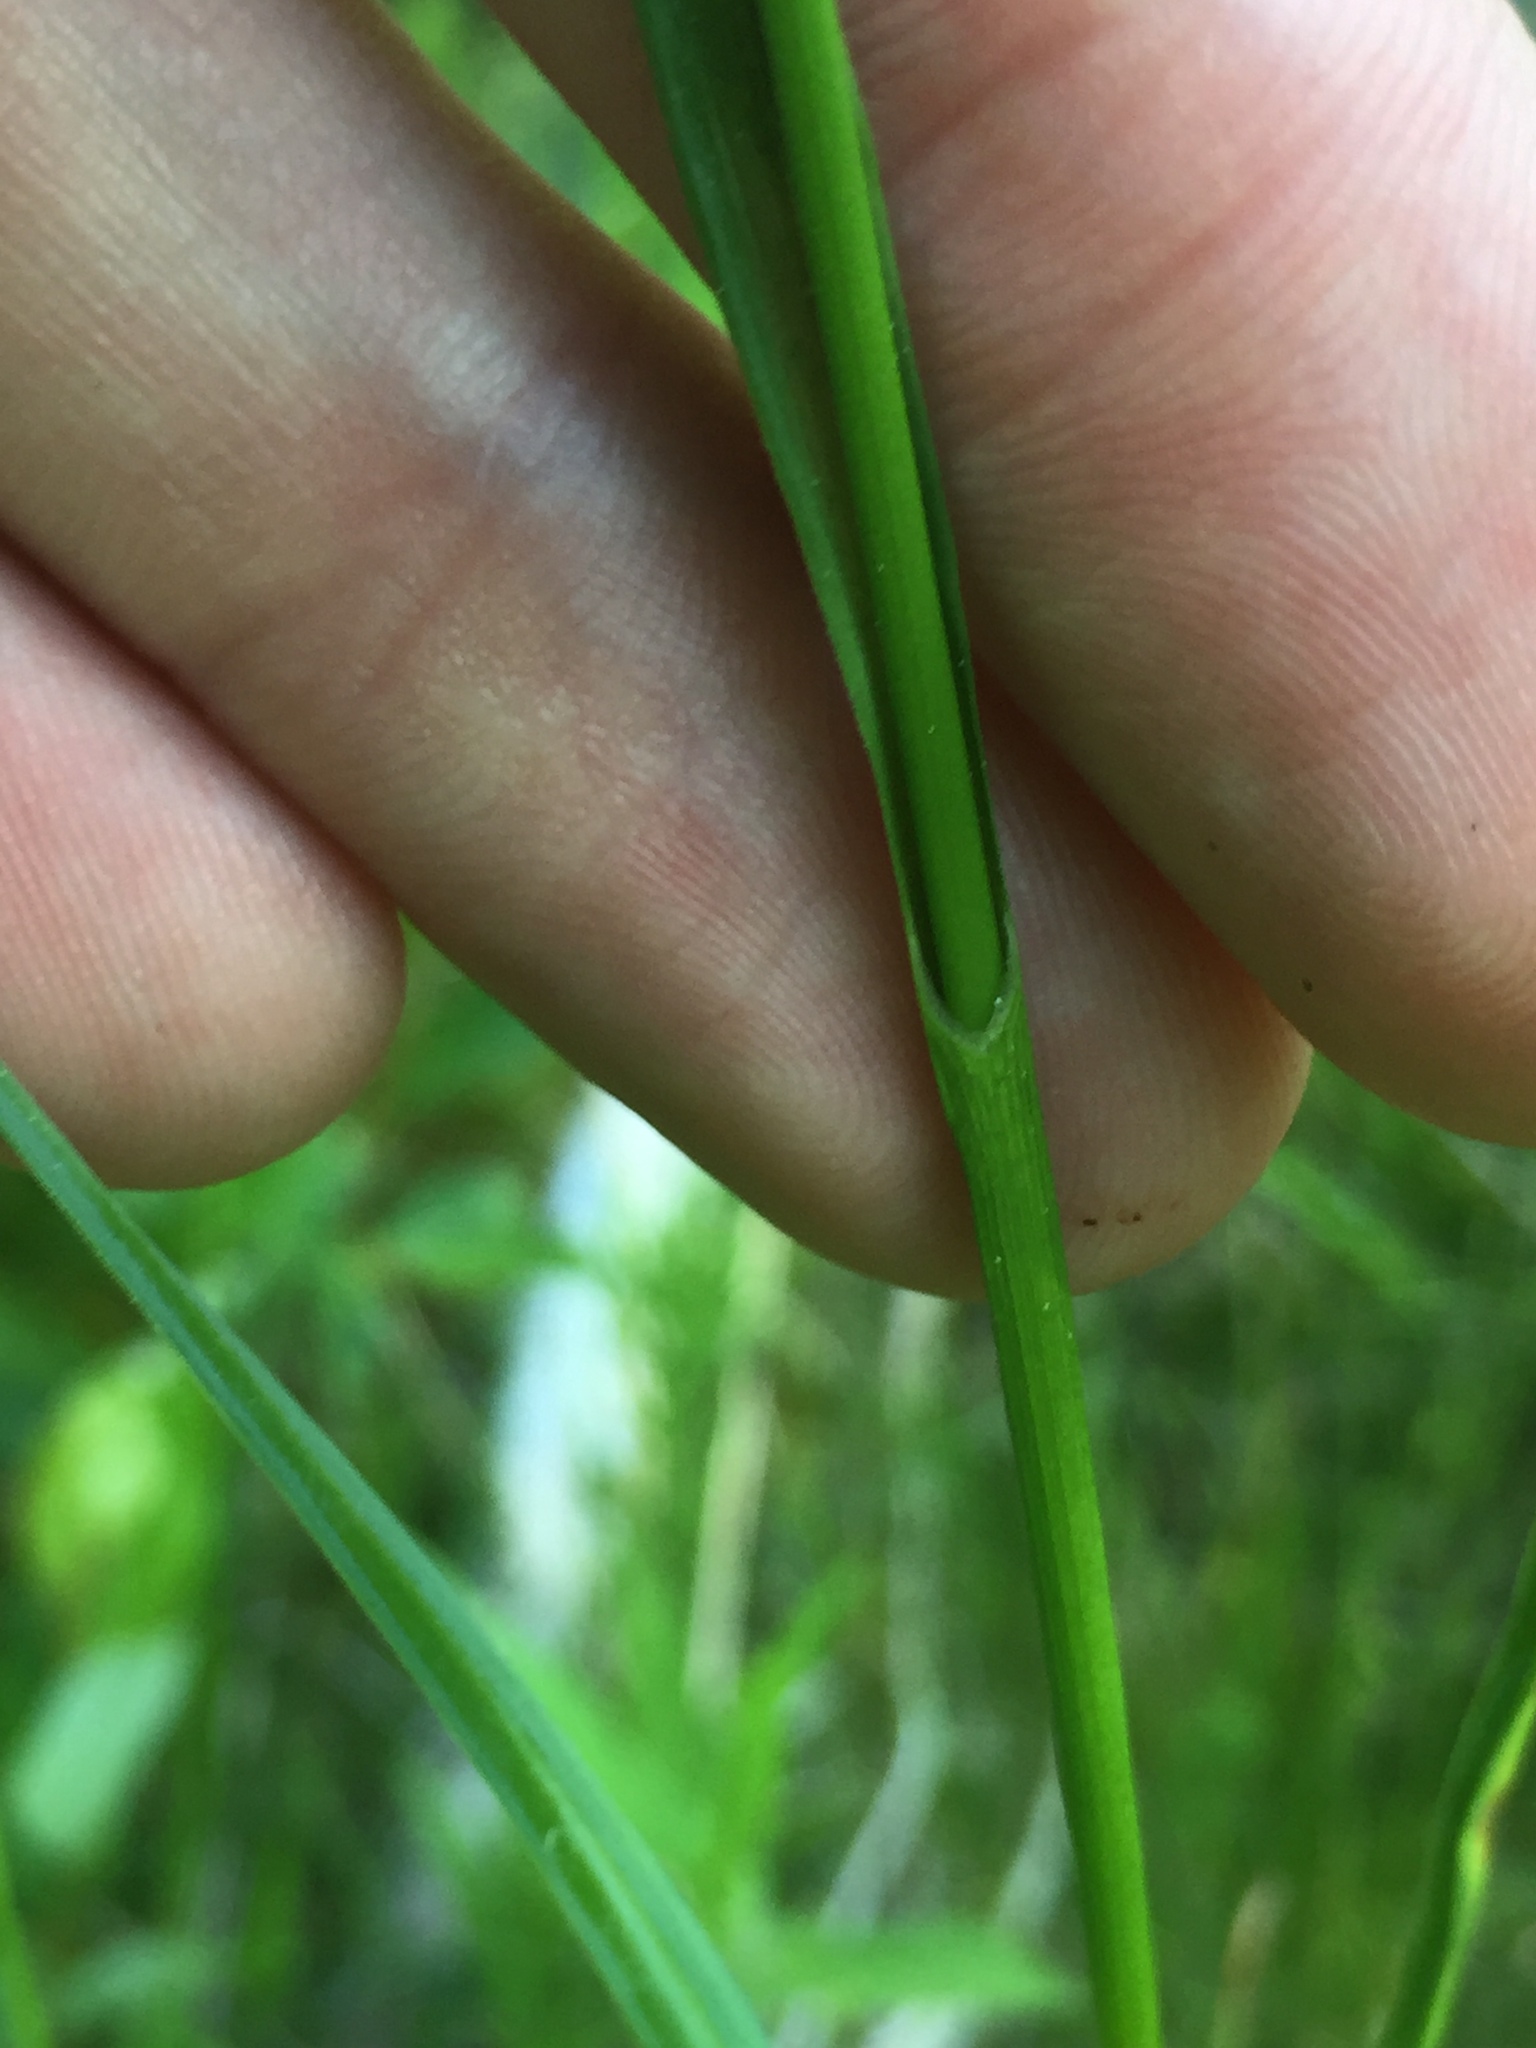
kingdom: Plantae
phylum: Tracheophyta
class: Liliopsida
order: Poales
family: Cyperaceae
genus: Eriophorum
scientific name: Eriophorum viridicarinatum
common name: Green-keeled cottongrass
